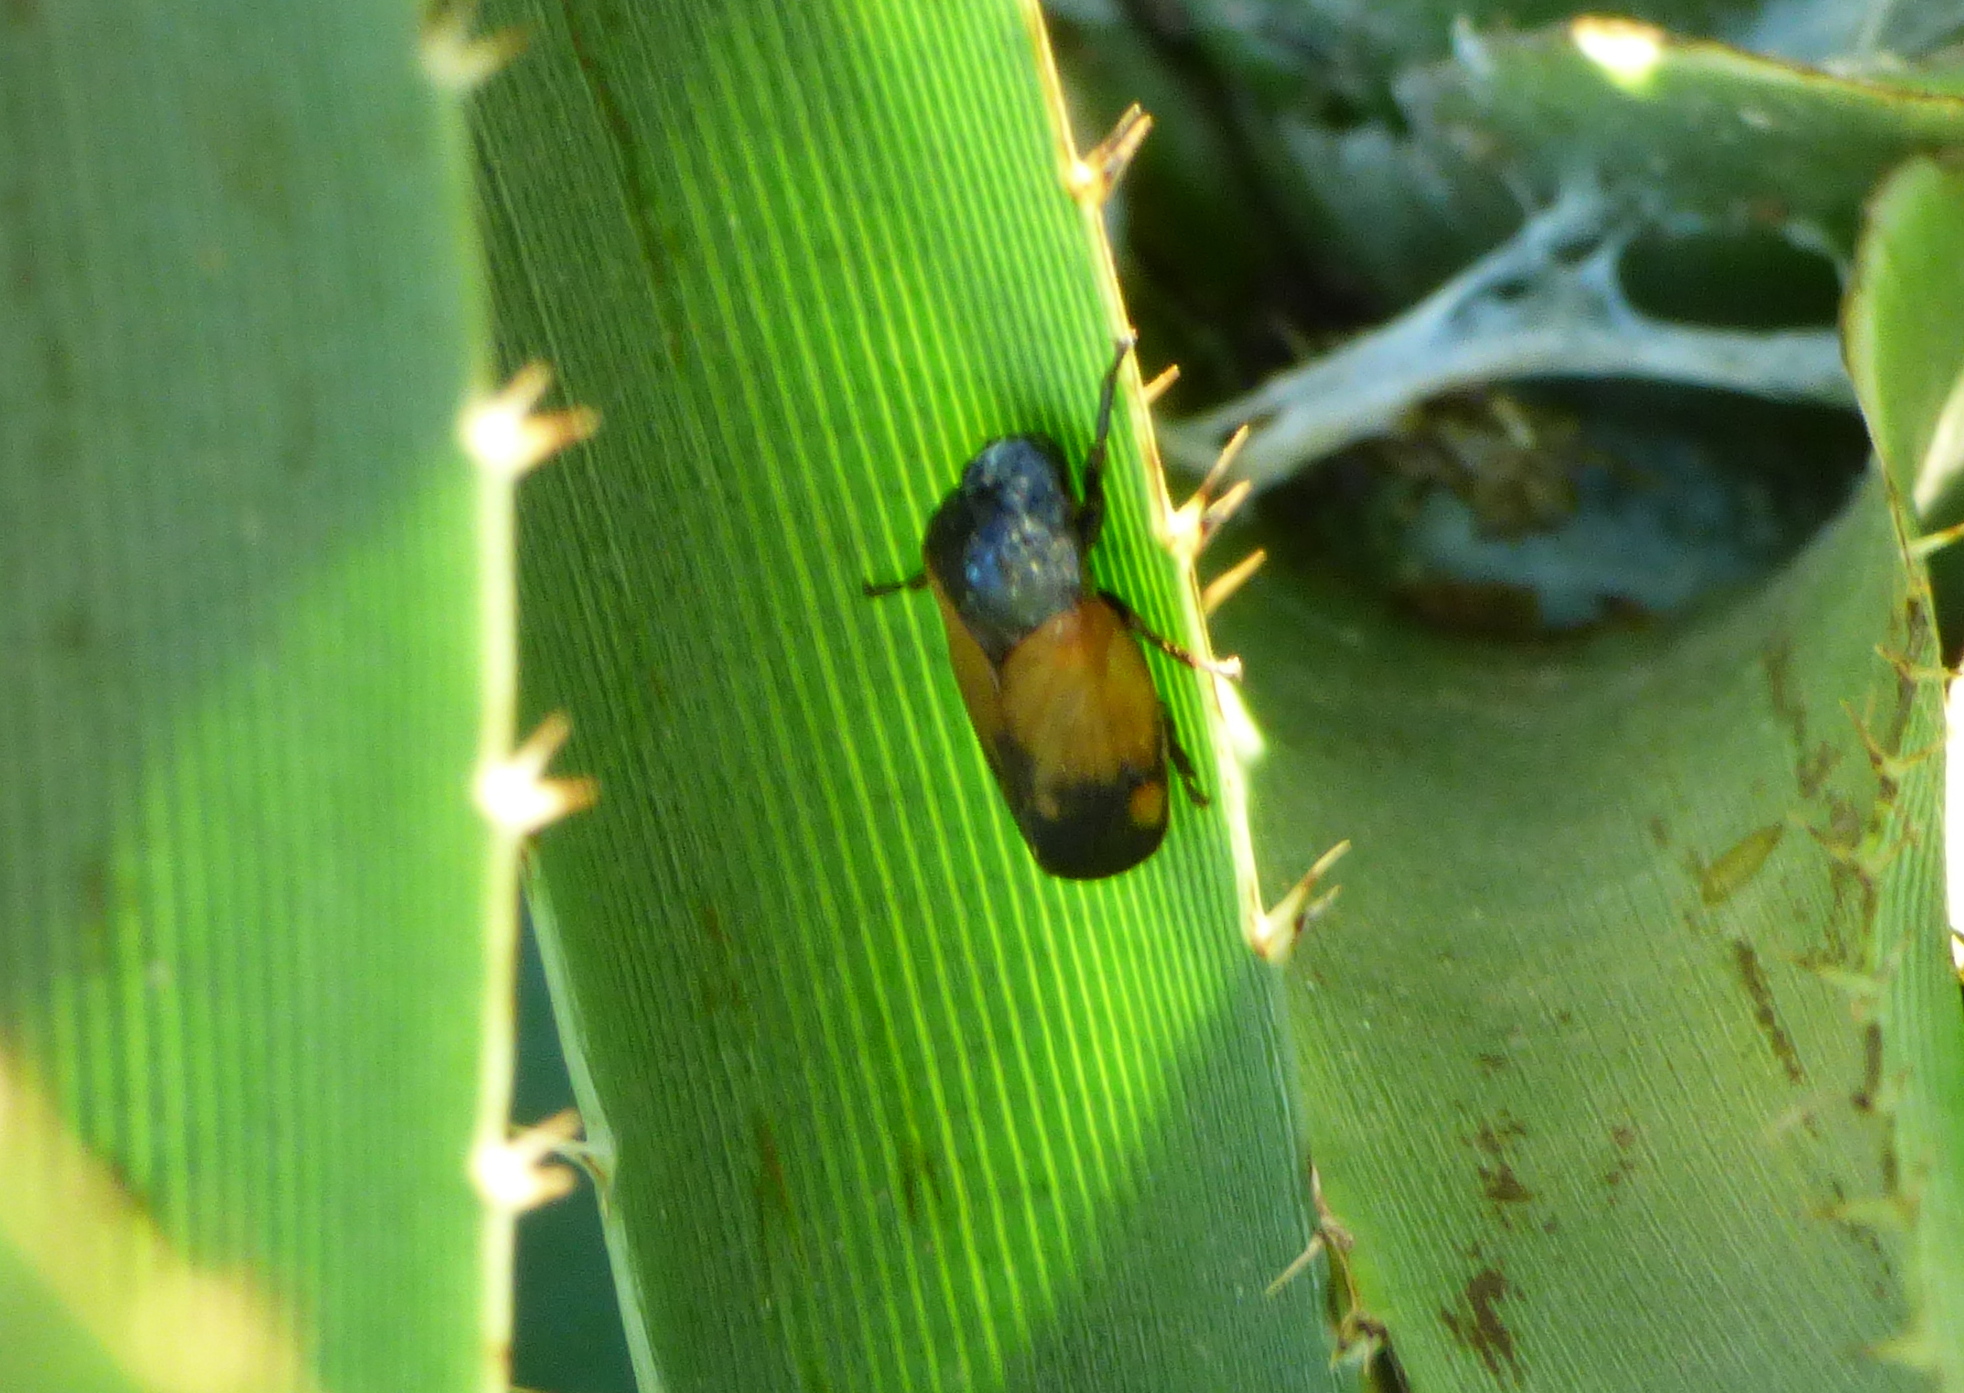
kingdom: Animalia
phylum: Arthropoda
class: Insecta
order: Hemiptera
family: Cercopidae
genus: Kanaima
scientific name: Kanaima fluvialis
